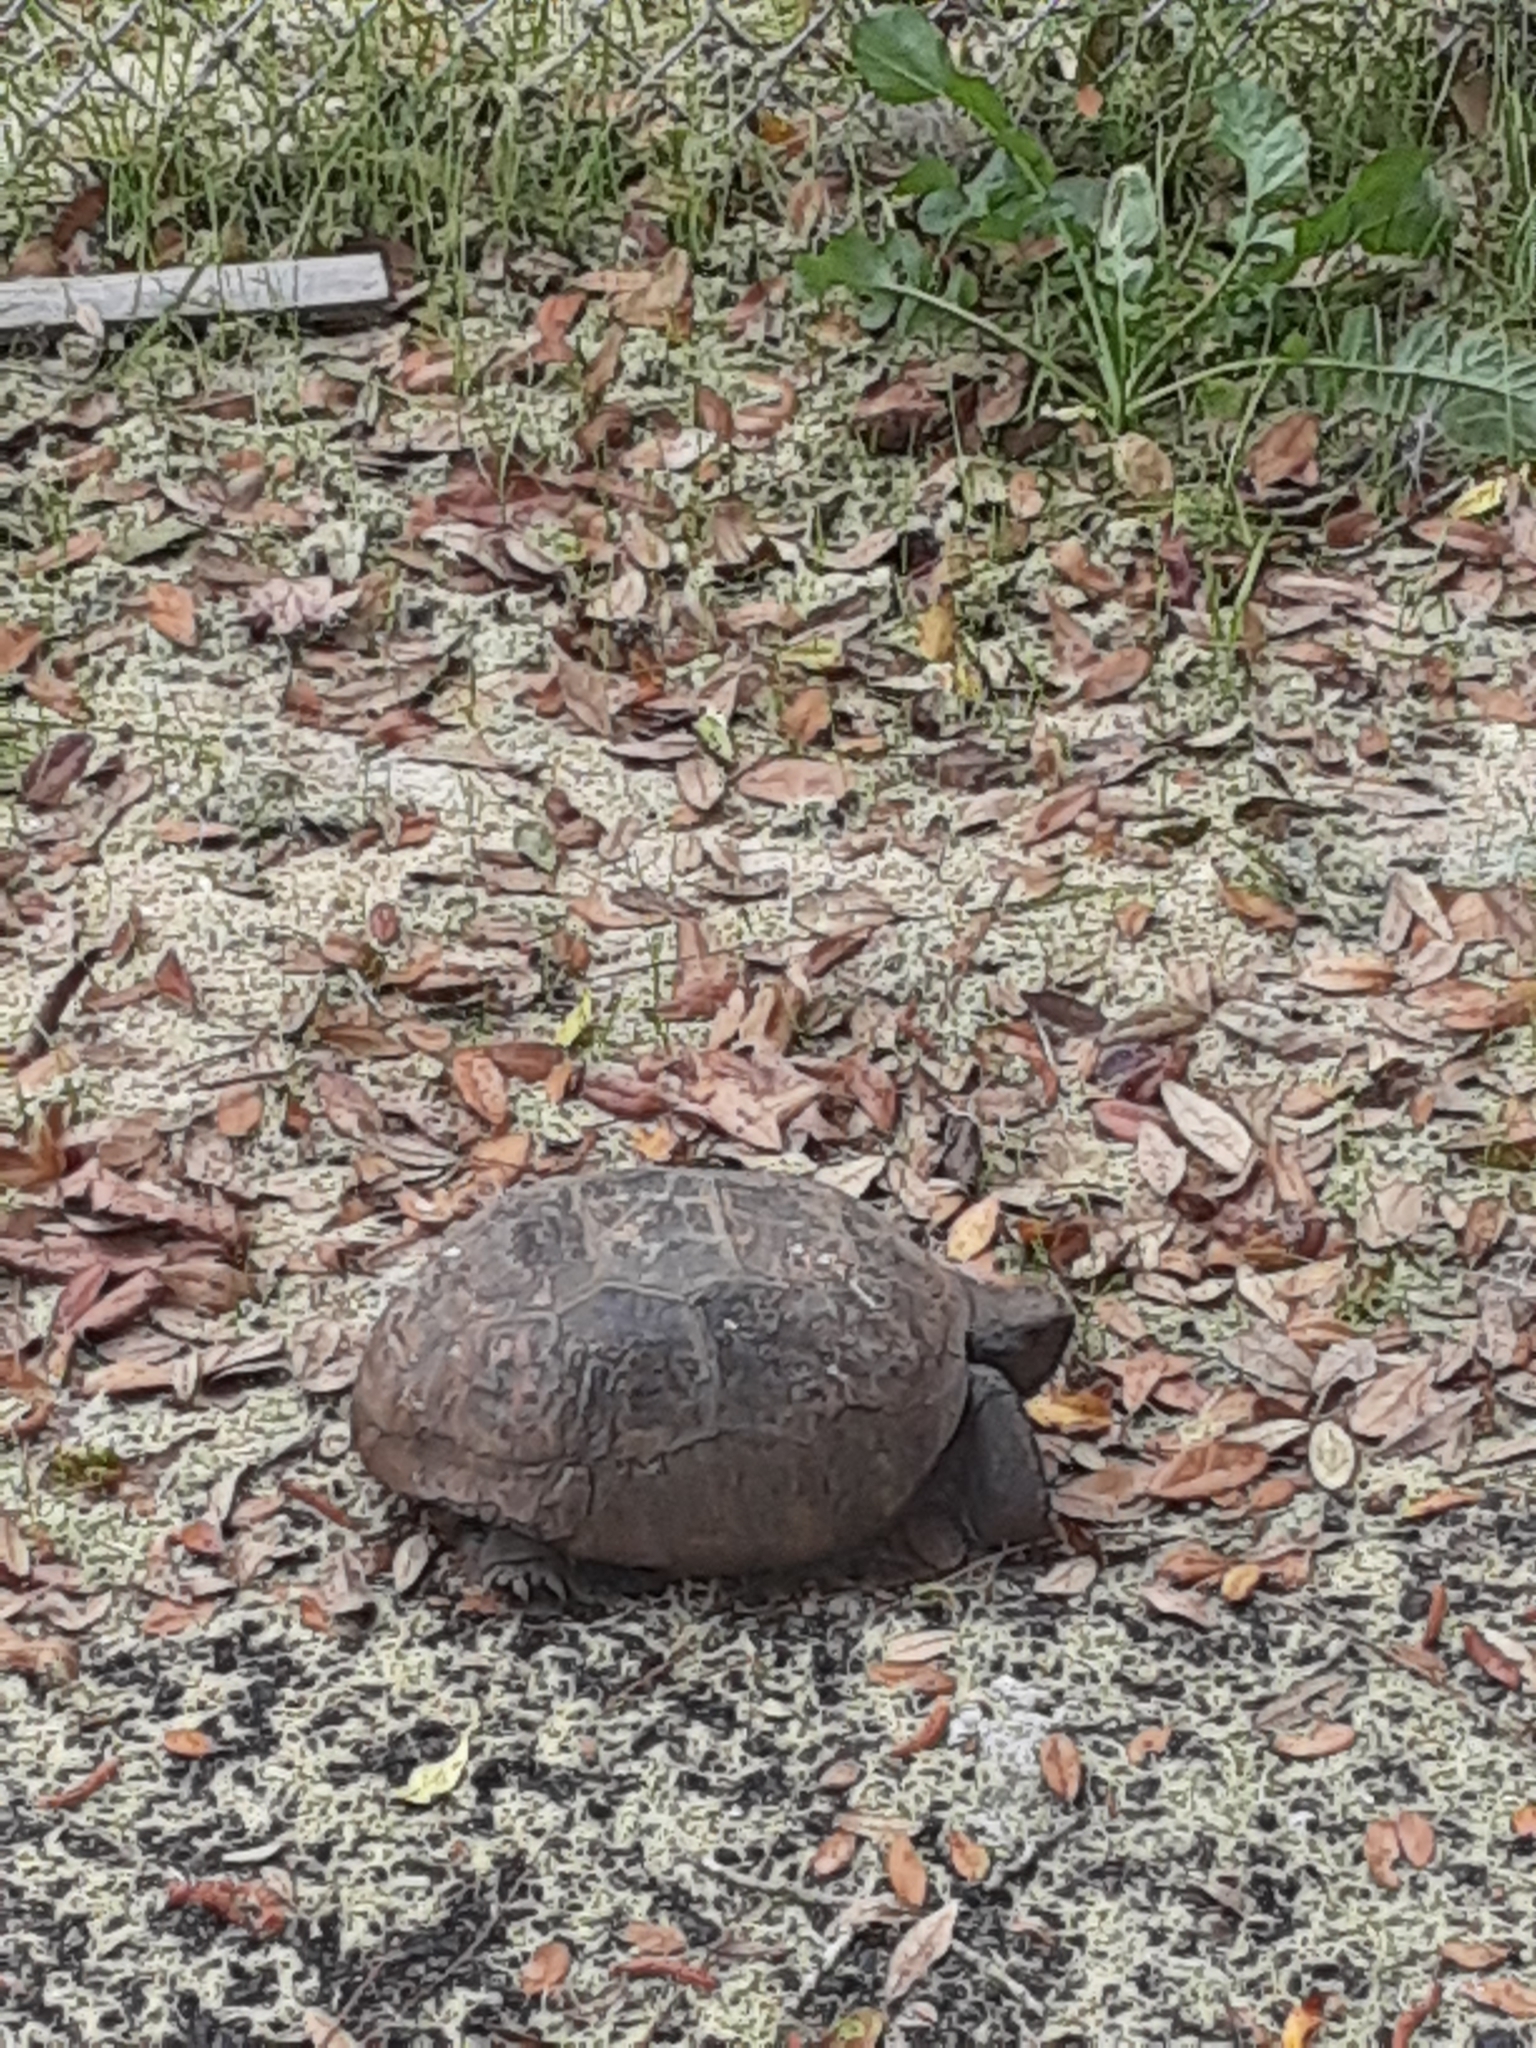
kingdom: Animalia
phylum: Chordata
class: Testudines
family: Testudinidae
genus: Gopherus
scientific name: Gopherus polyphemus
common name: Florida gopher tortoise
